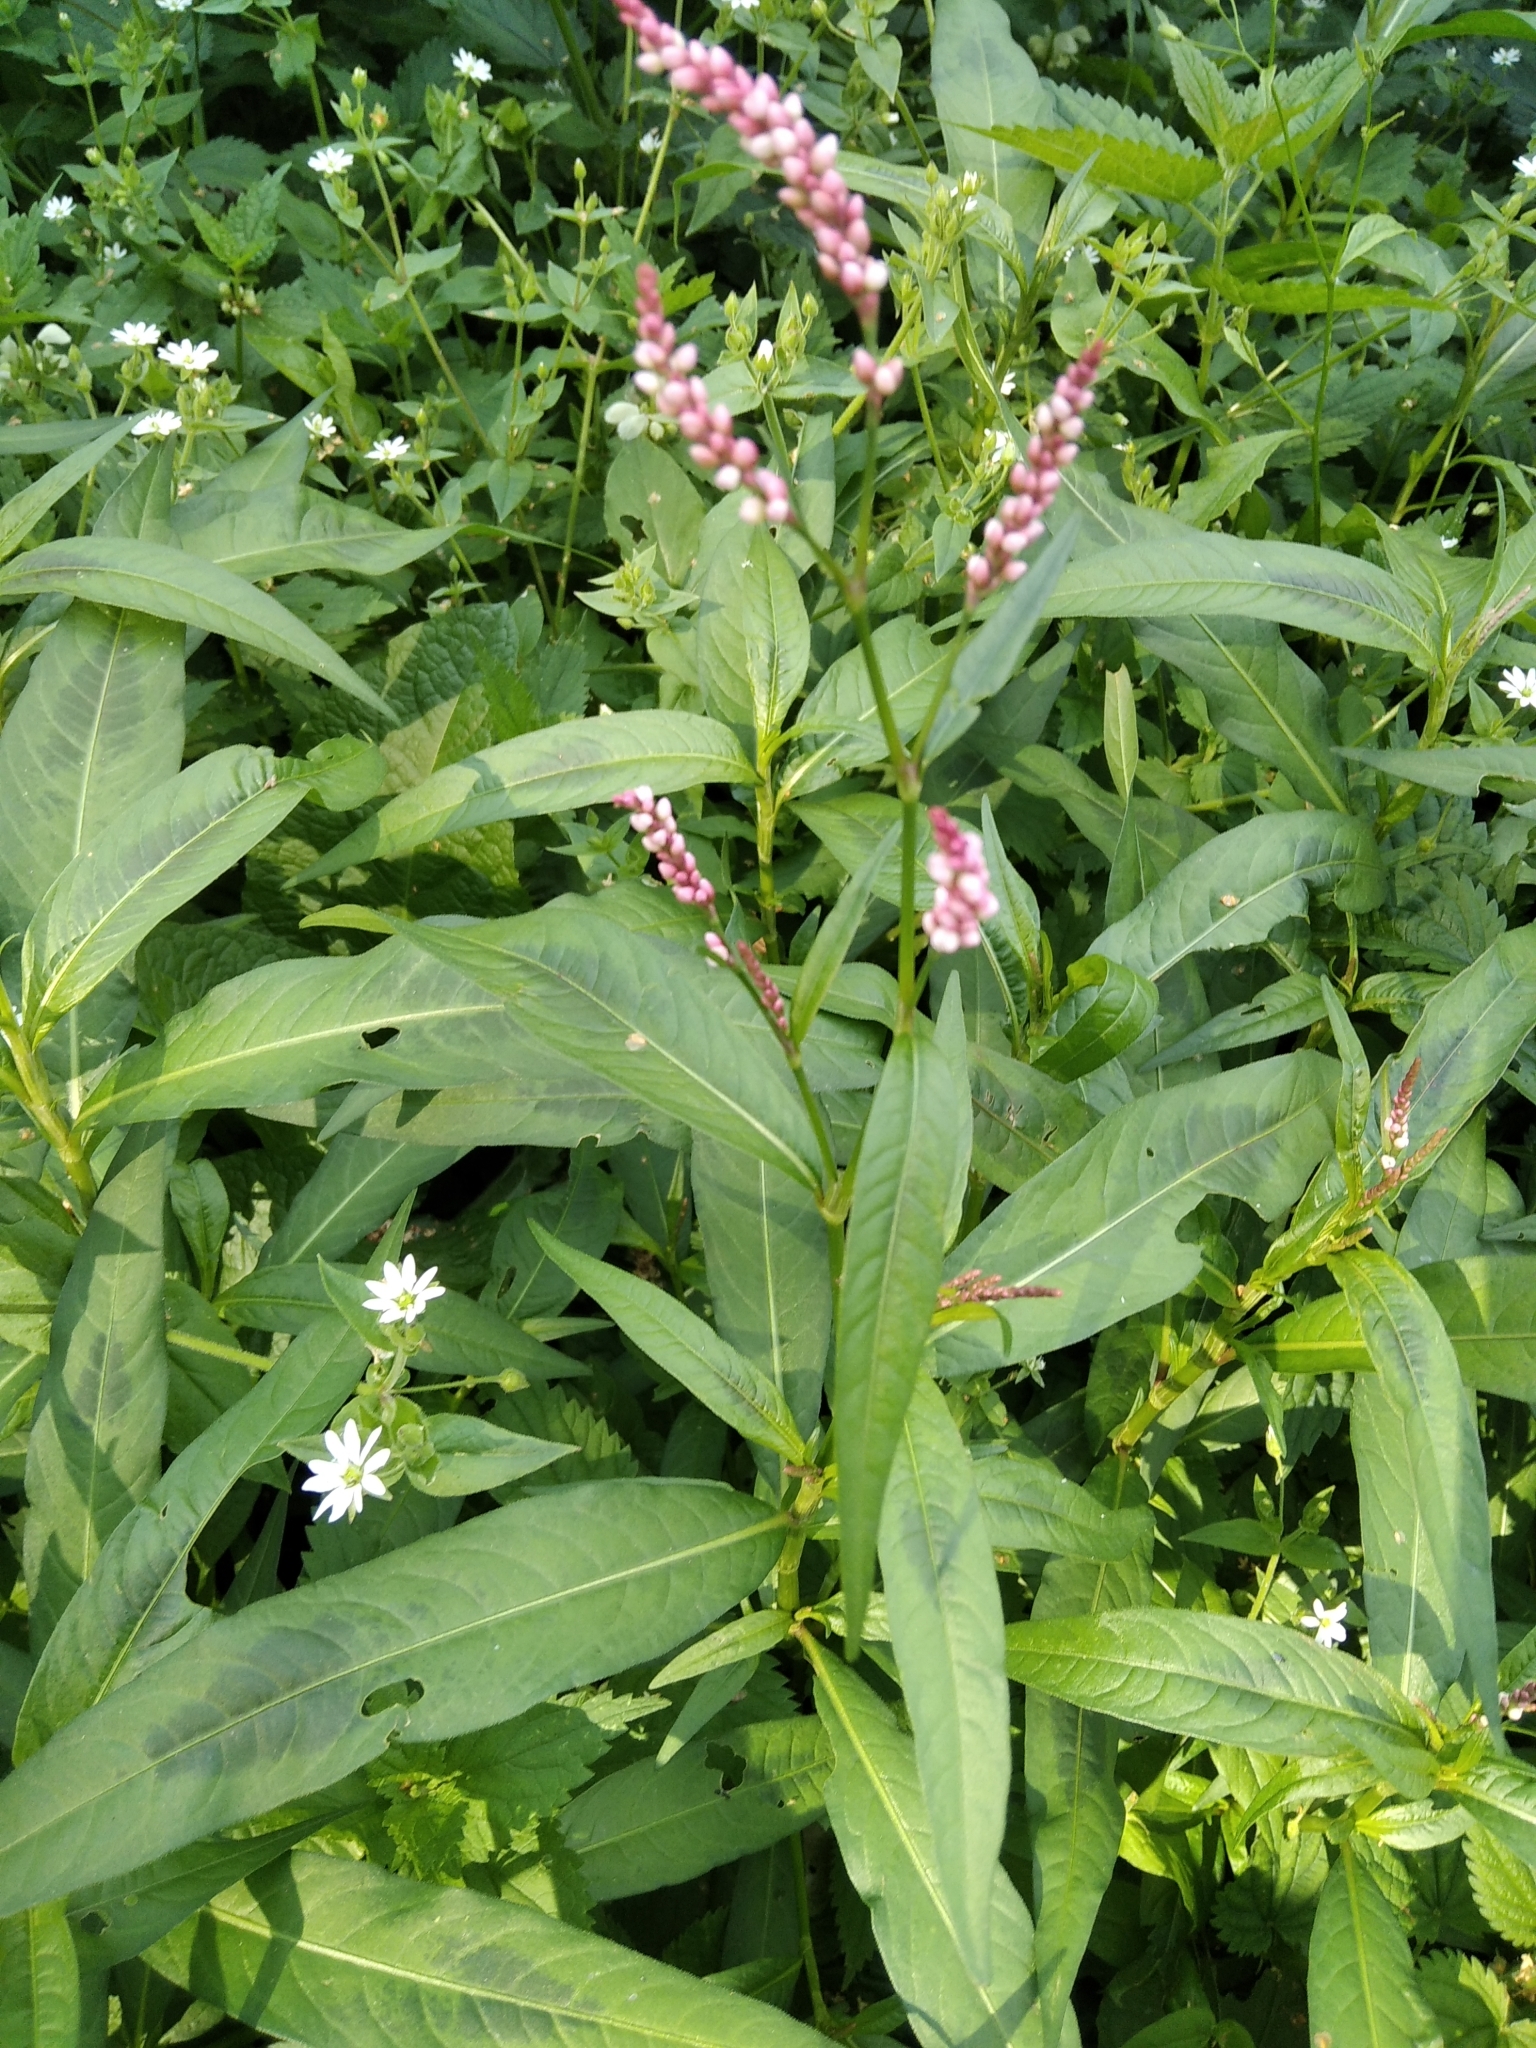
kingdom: Plantae
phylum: Tracheophyta
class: Magnoliopsida
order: Caryophyllales
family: Polygonaceae
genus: Persicaria
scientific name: Persicaria maculosa
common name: Redshank
